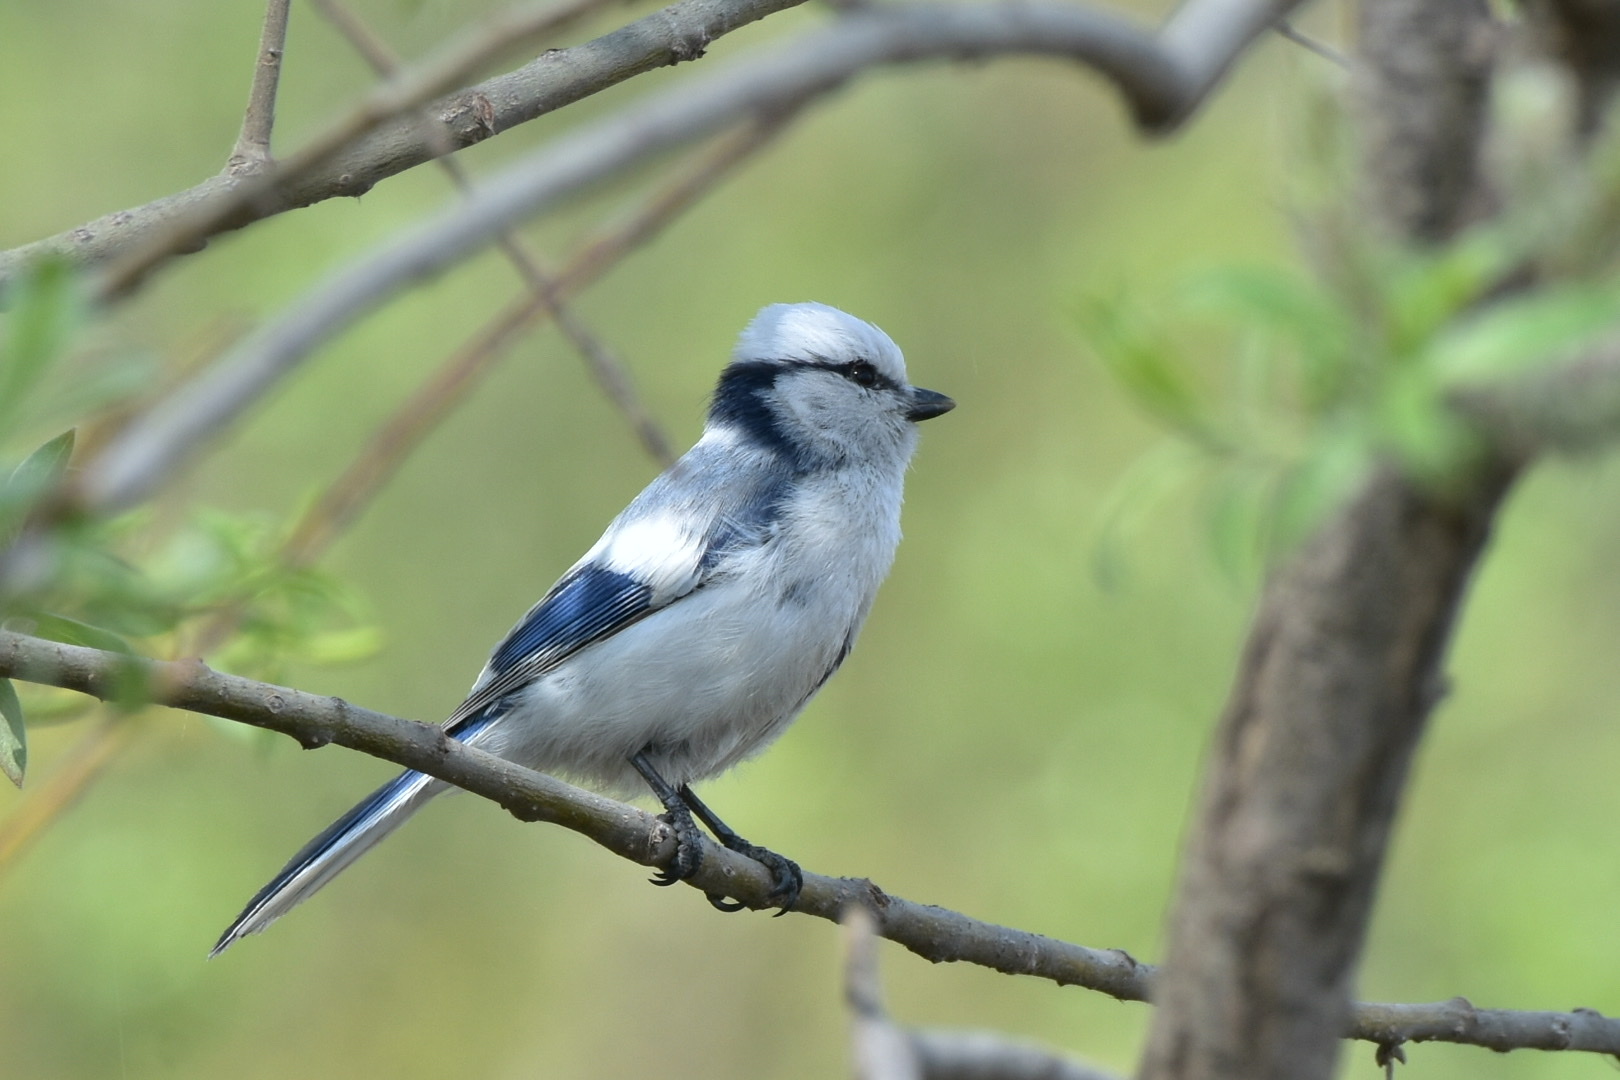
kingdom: Animalia
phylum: Chordata
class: Aves
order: Passeriformes
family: Paridae
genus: Cyanistes
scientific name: Cyanistes cyanus
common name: Azure tit
